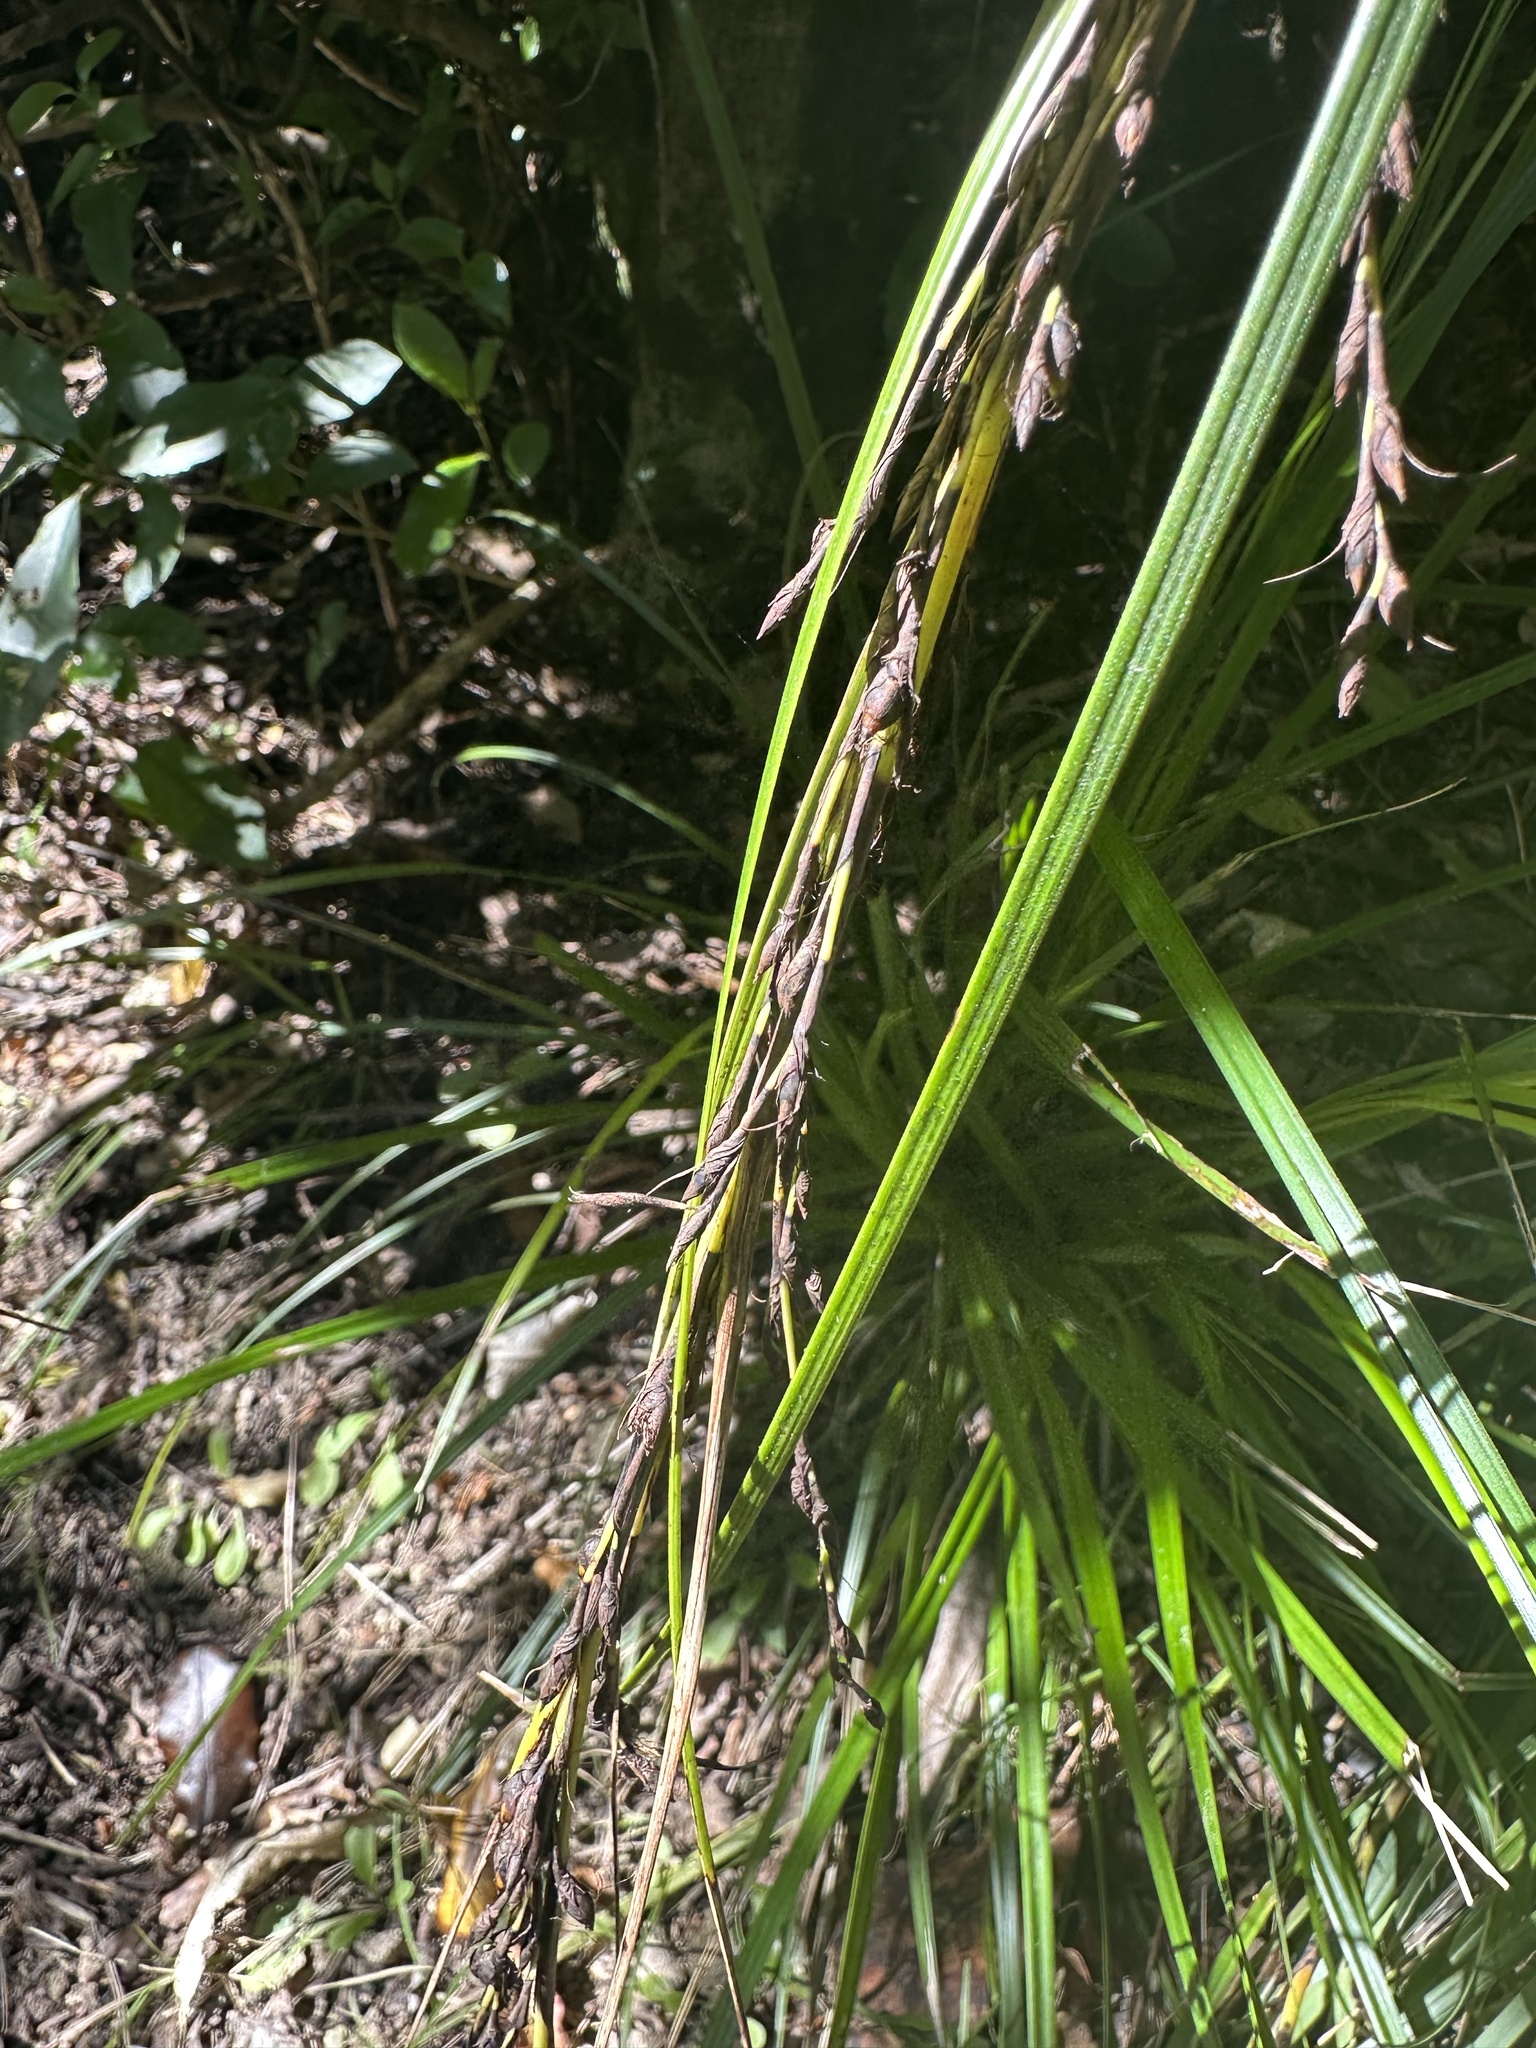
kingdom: Plantae
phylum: Tracheophyta
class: Liliopsida
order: Poales
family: Cyperaceae
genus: Gahnia
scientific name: Gahnia pauciflora
